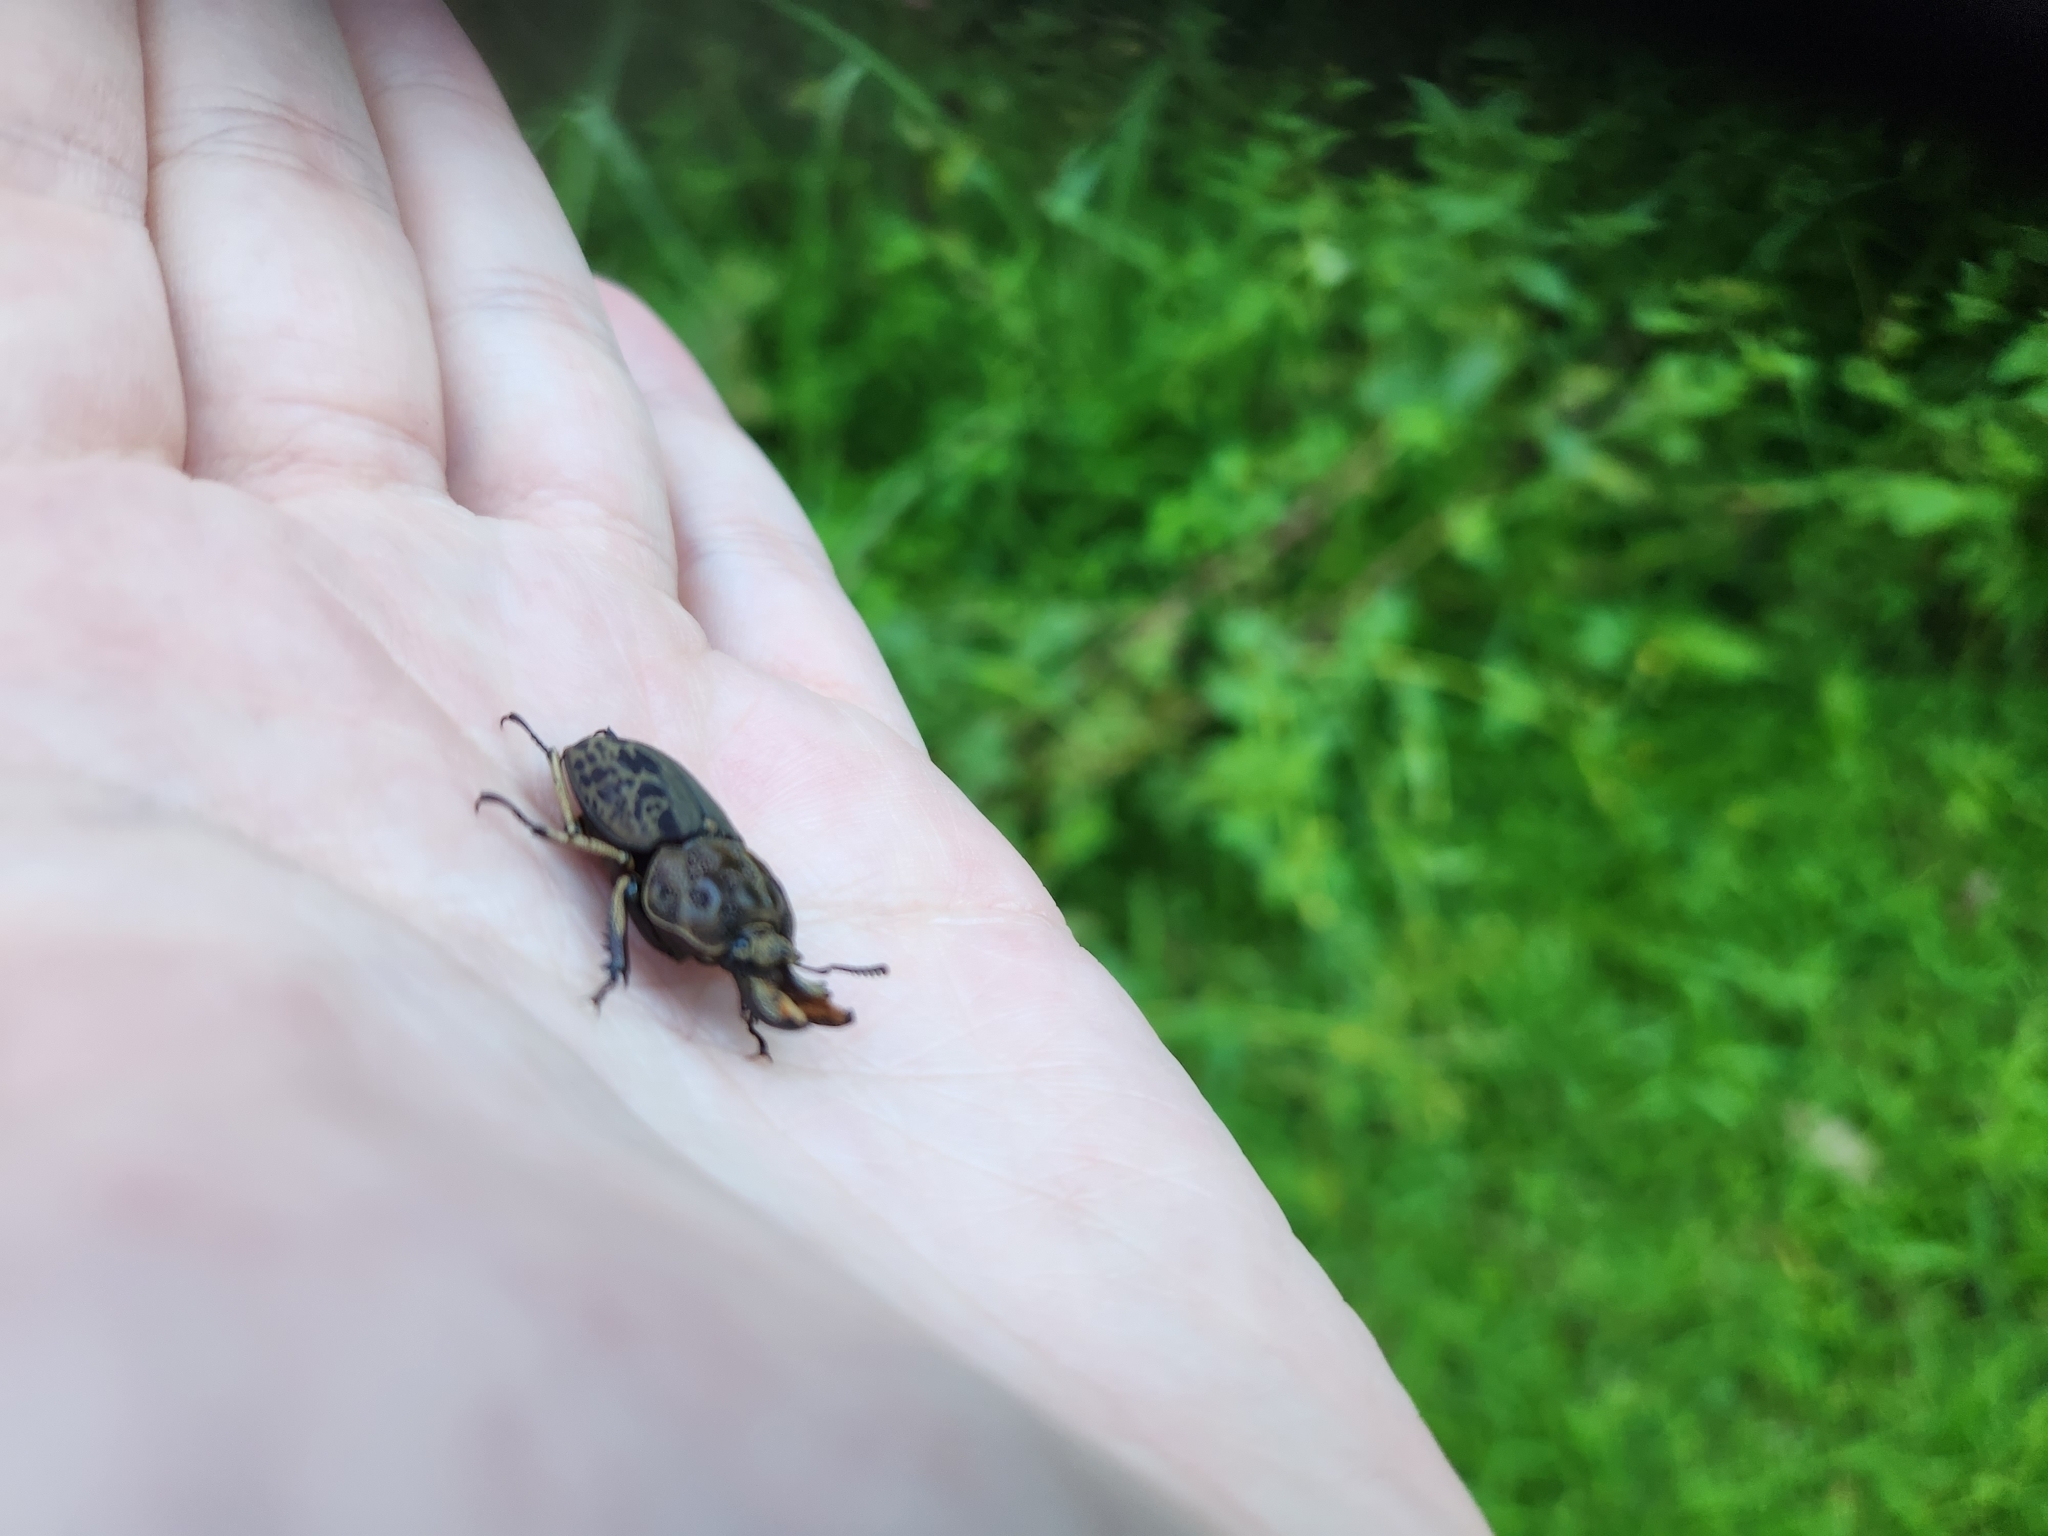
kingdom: Animalia
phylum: Arthropoda
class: Insecta
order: Coleoptera
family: Lucanidae
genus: Ryssonotus
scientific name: Ryssonotus nebulosus
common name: Brown stag beetle
